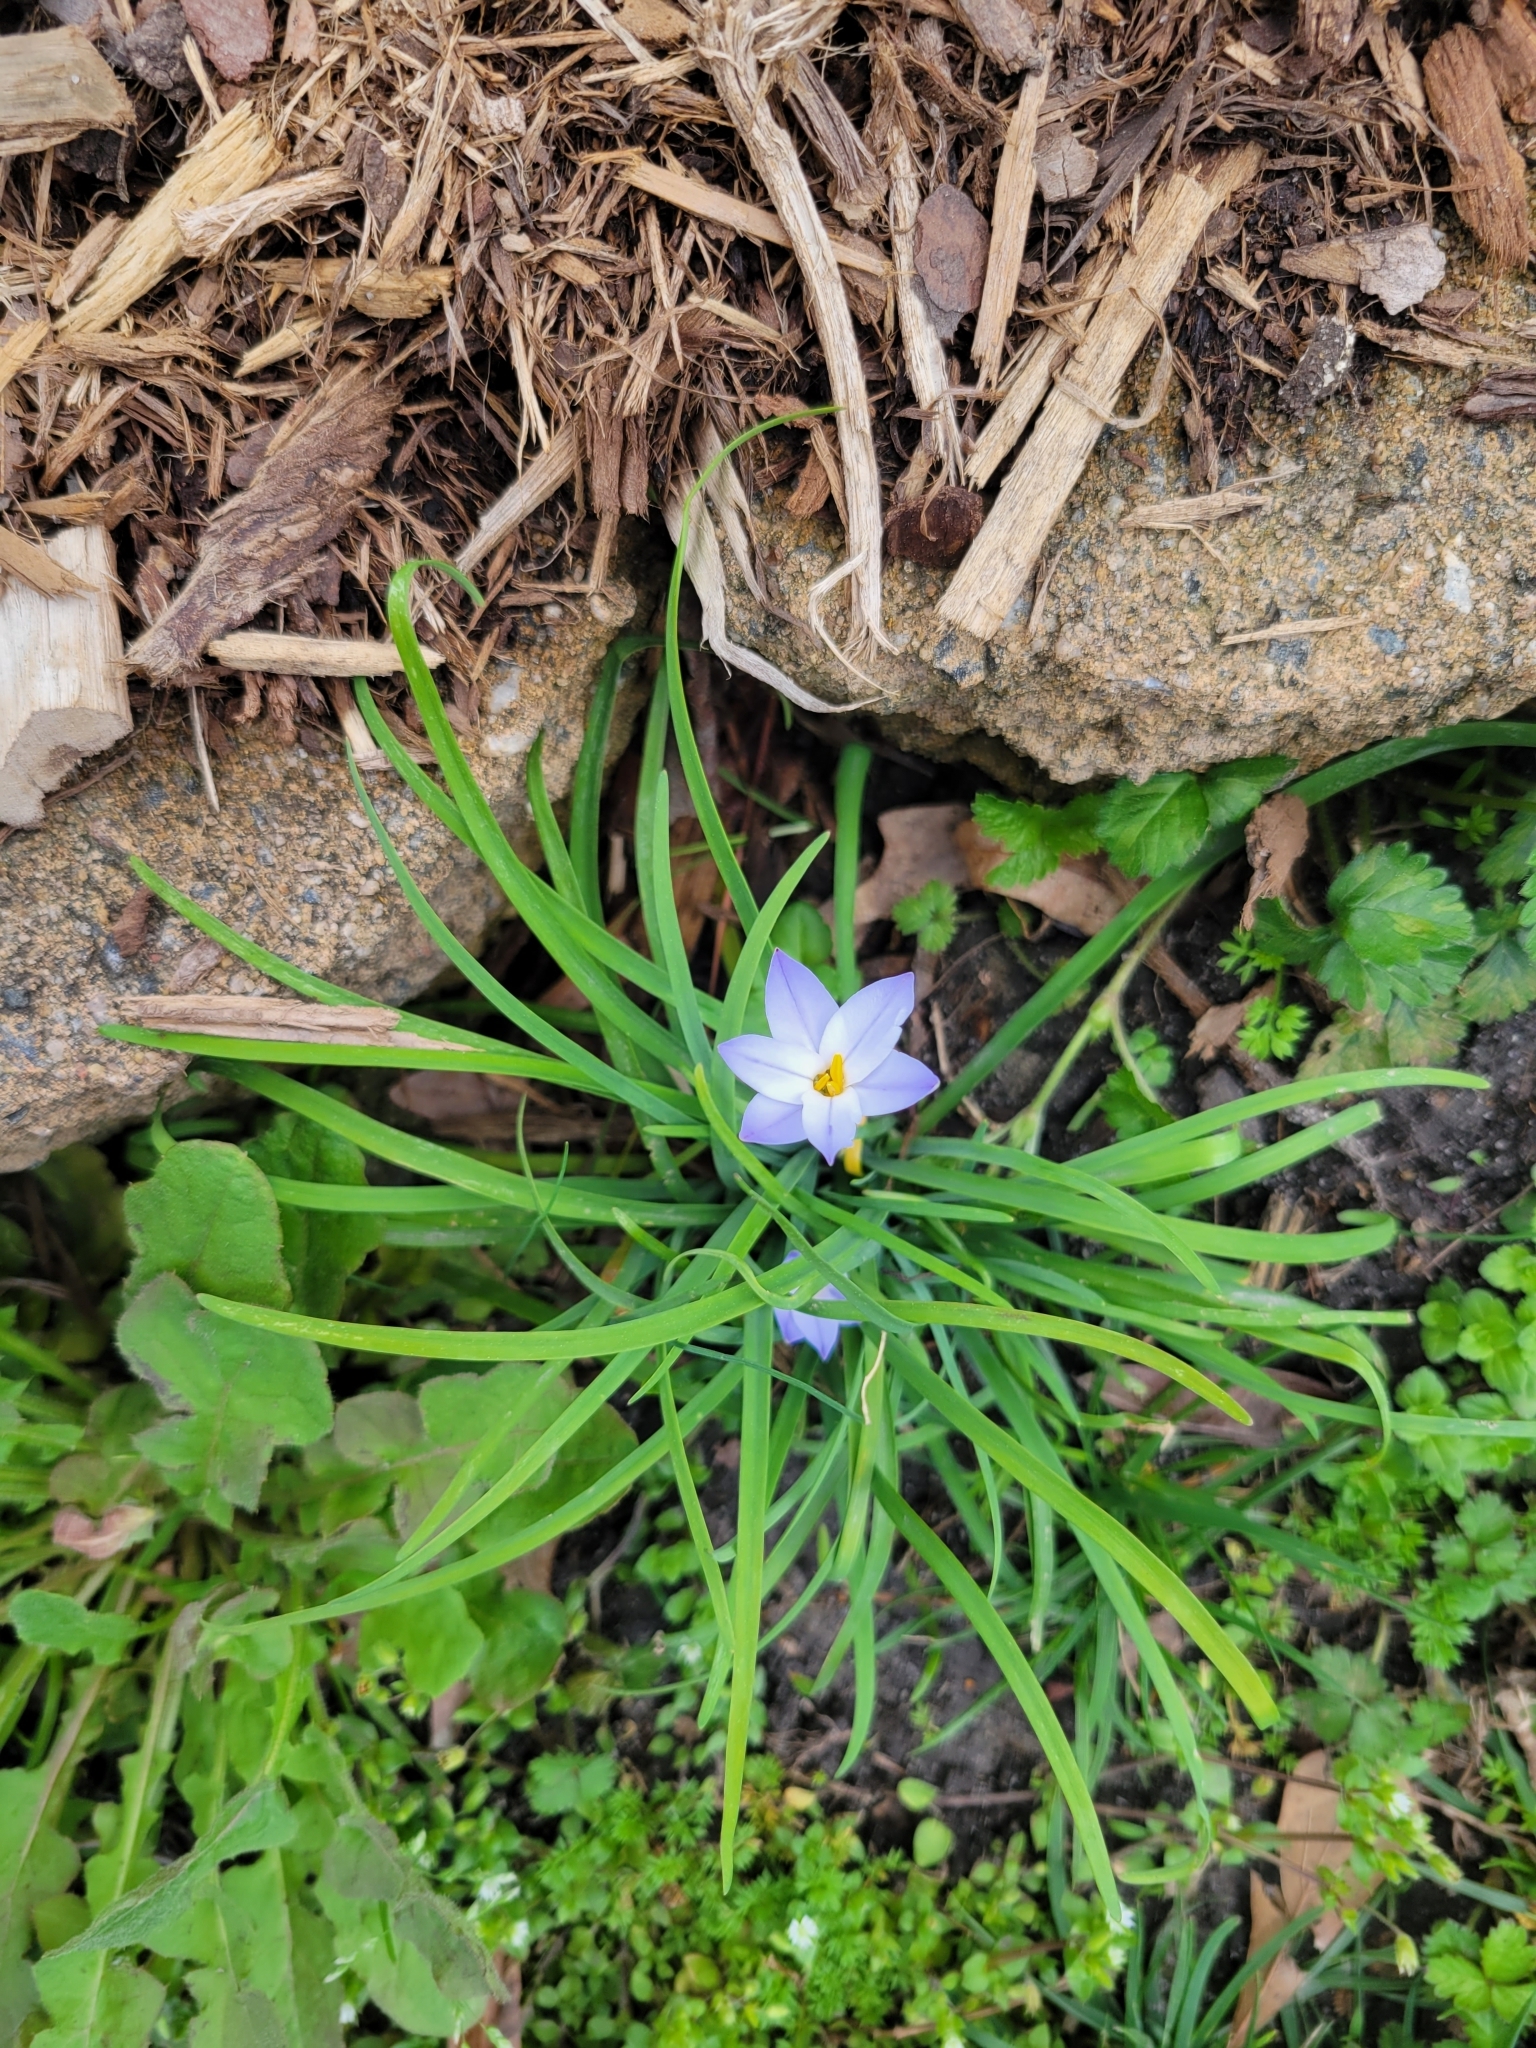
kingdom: Plantae
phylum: Tracheophyta
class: Liliopsida
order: Asparagales
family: Amaryllidaceae
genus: Ipheion
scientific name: Ipheion uniflorum
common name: Spring starflower
